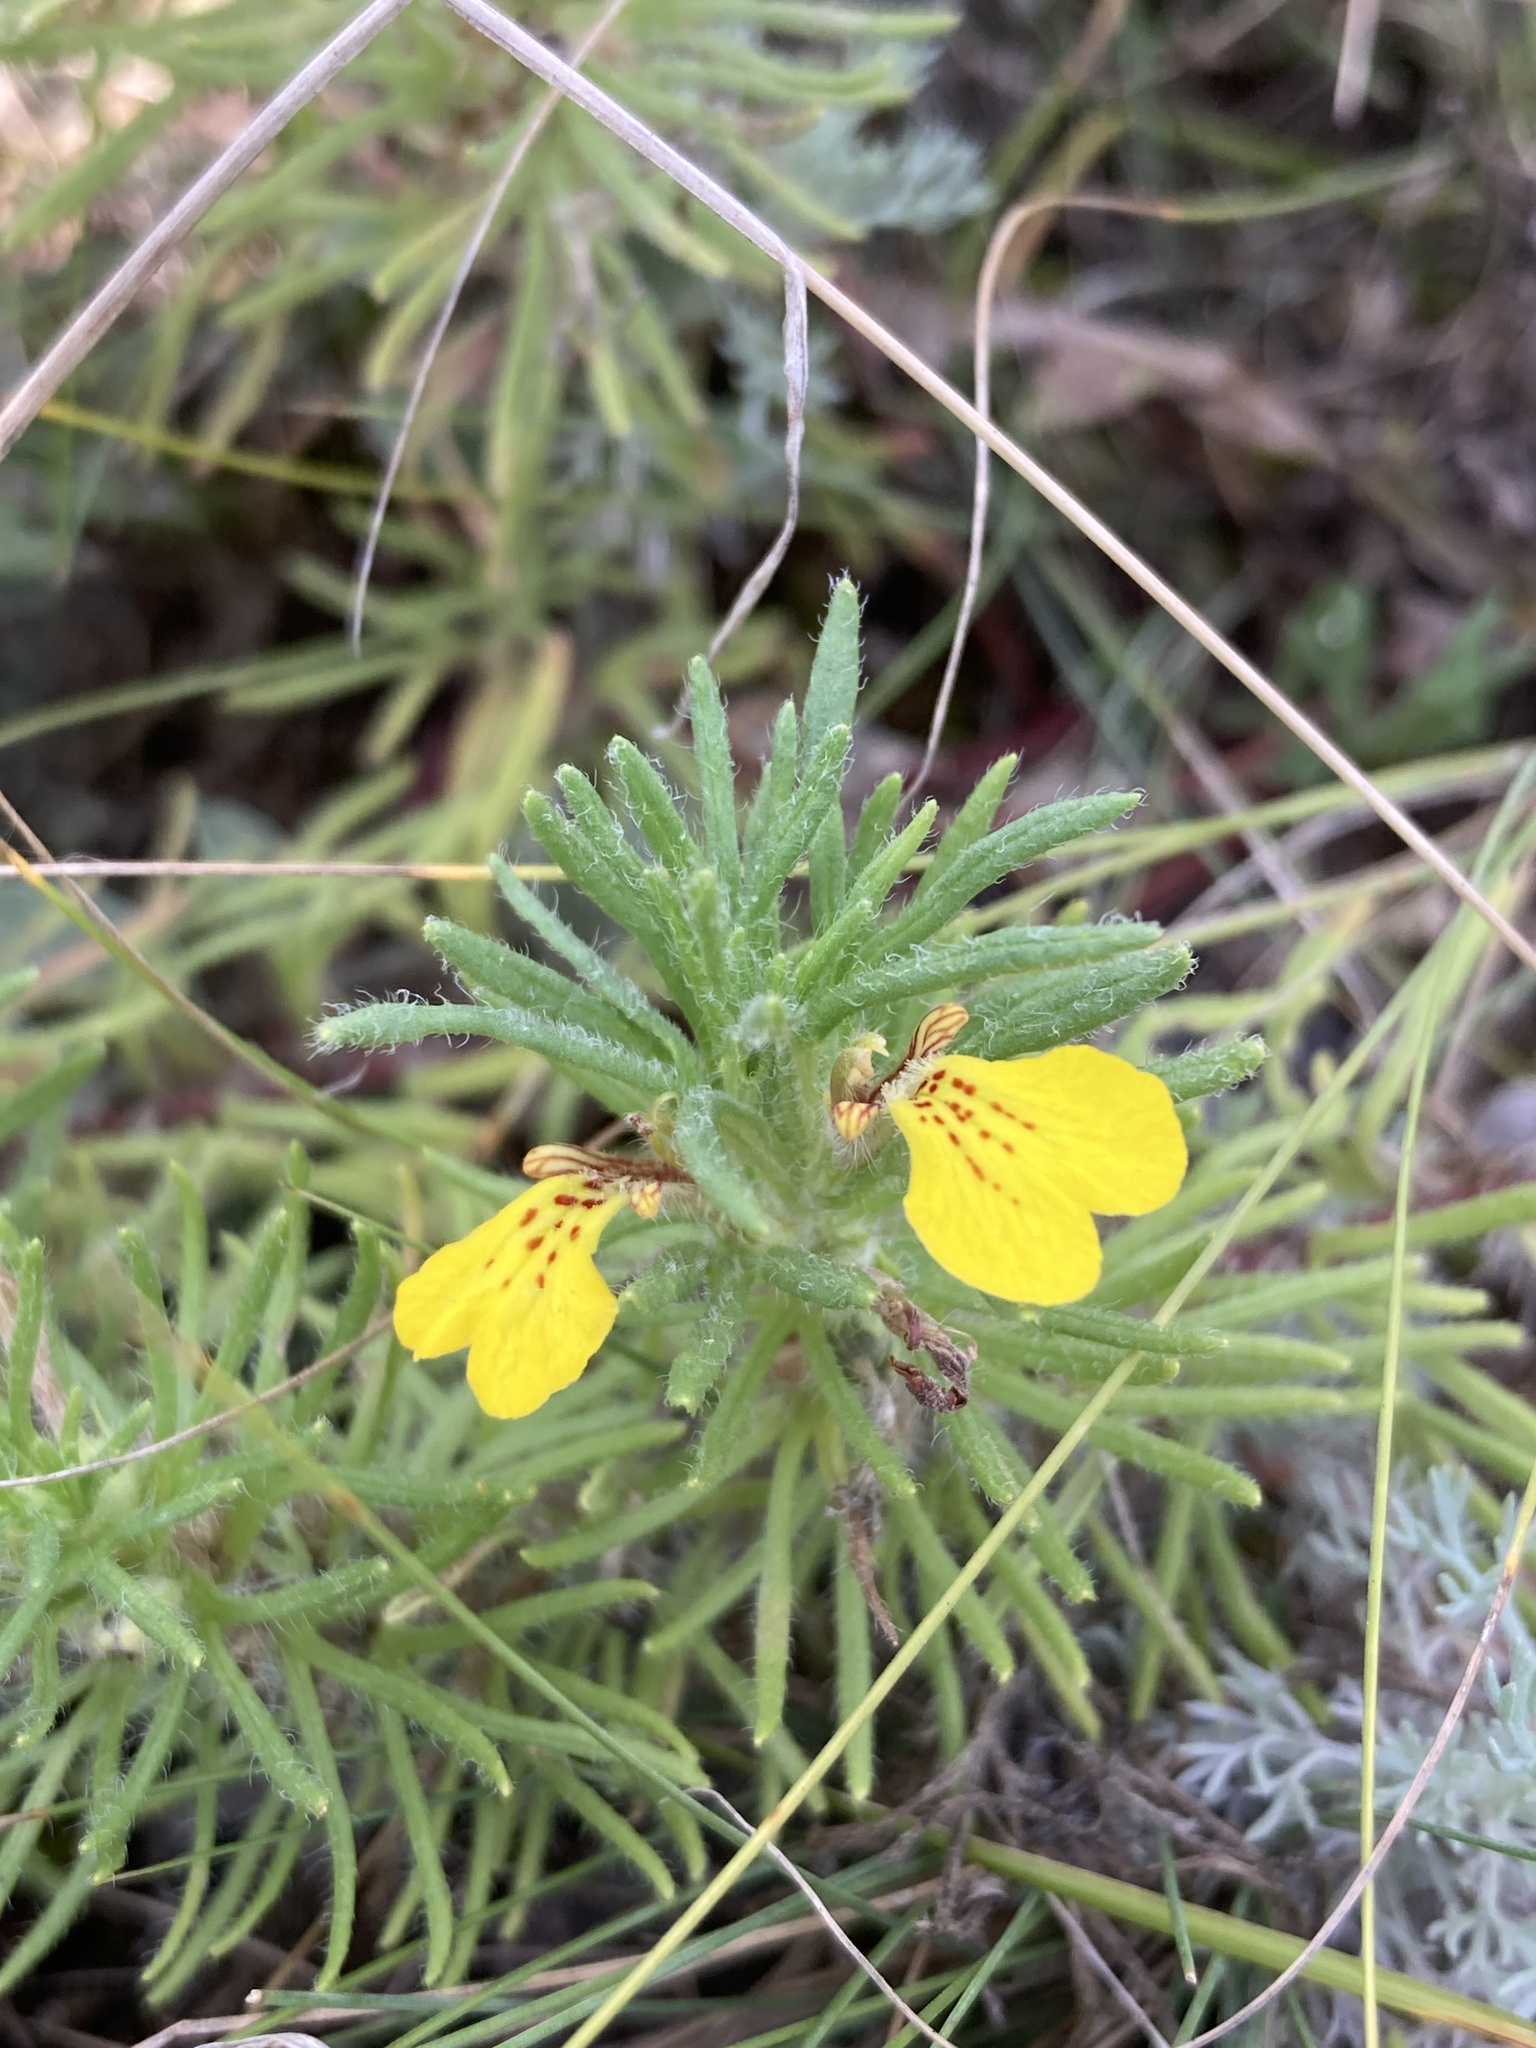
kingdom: Plantae
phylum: Tracheophyta
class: Magnoliopsida
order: Lamiales
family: Lamiaceae
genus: Ajuga
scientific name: Ajuga chamaepitys
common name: Ground-pine
